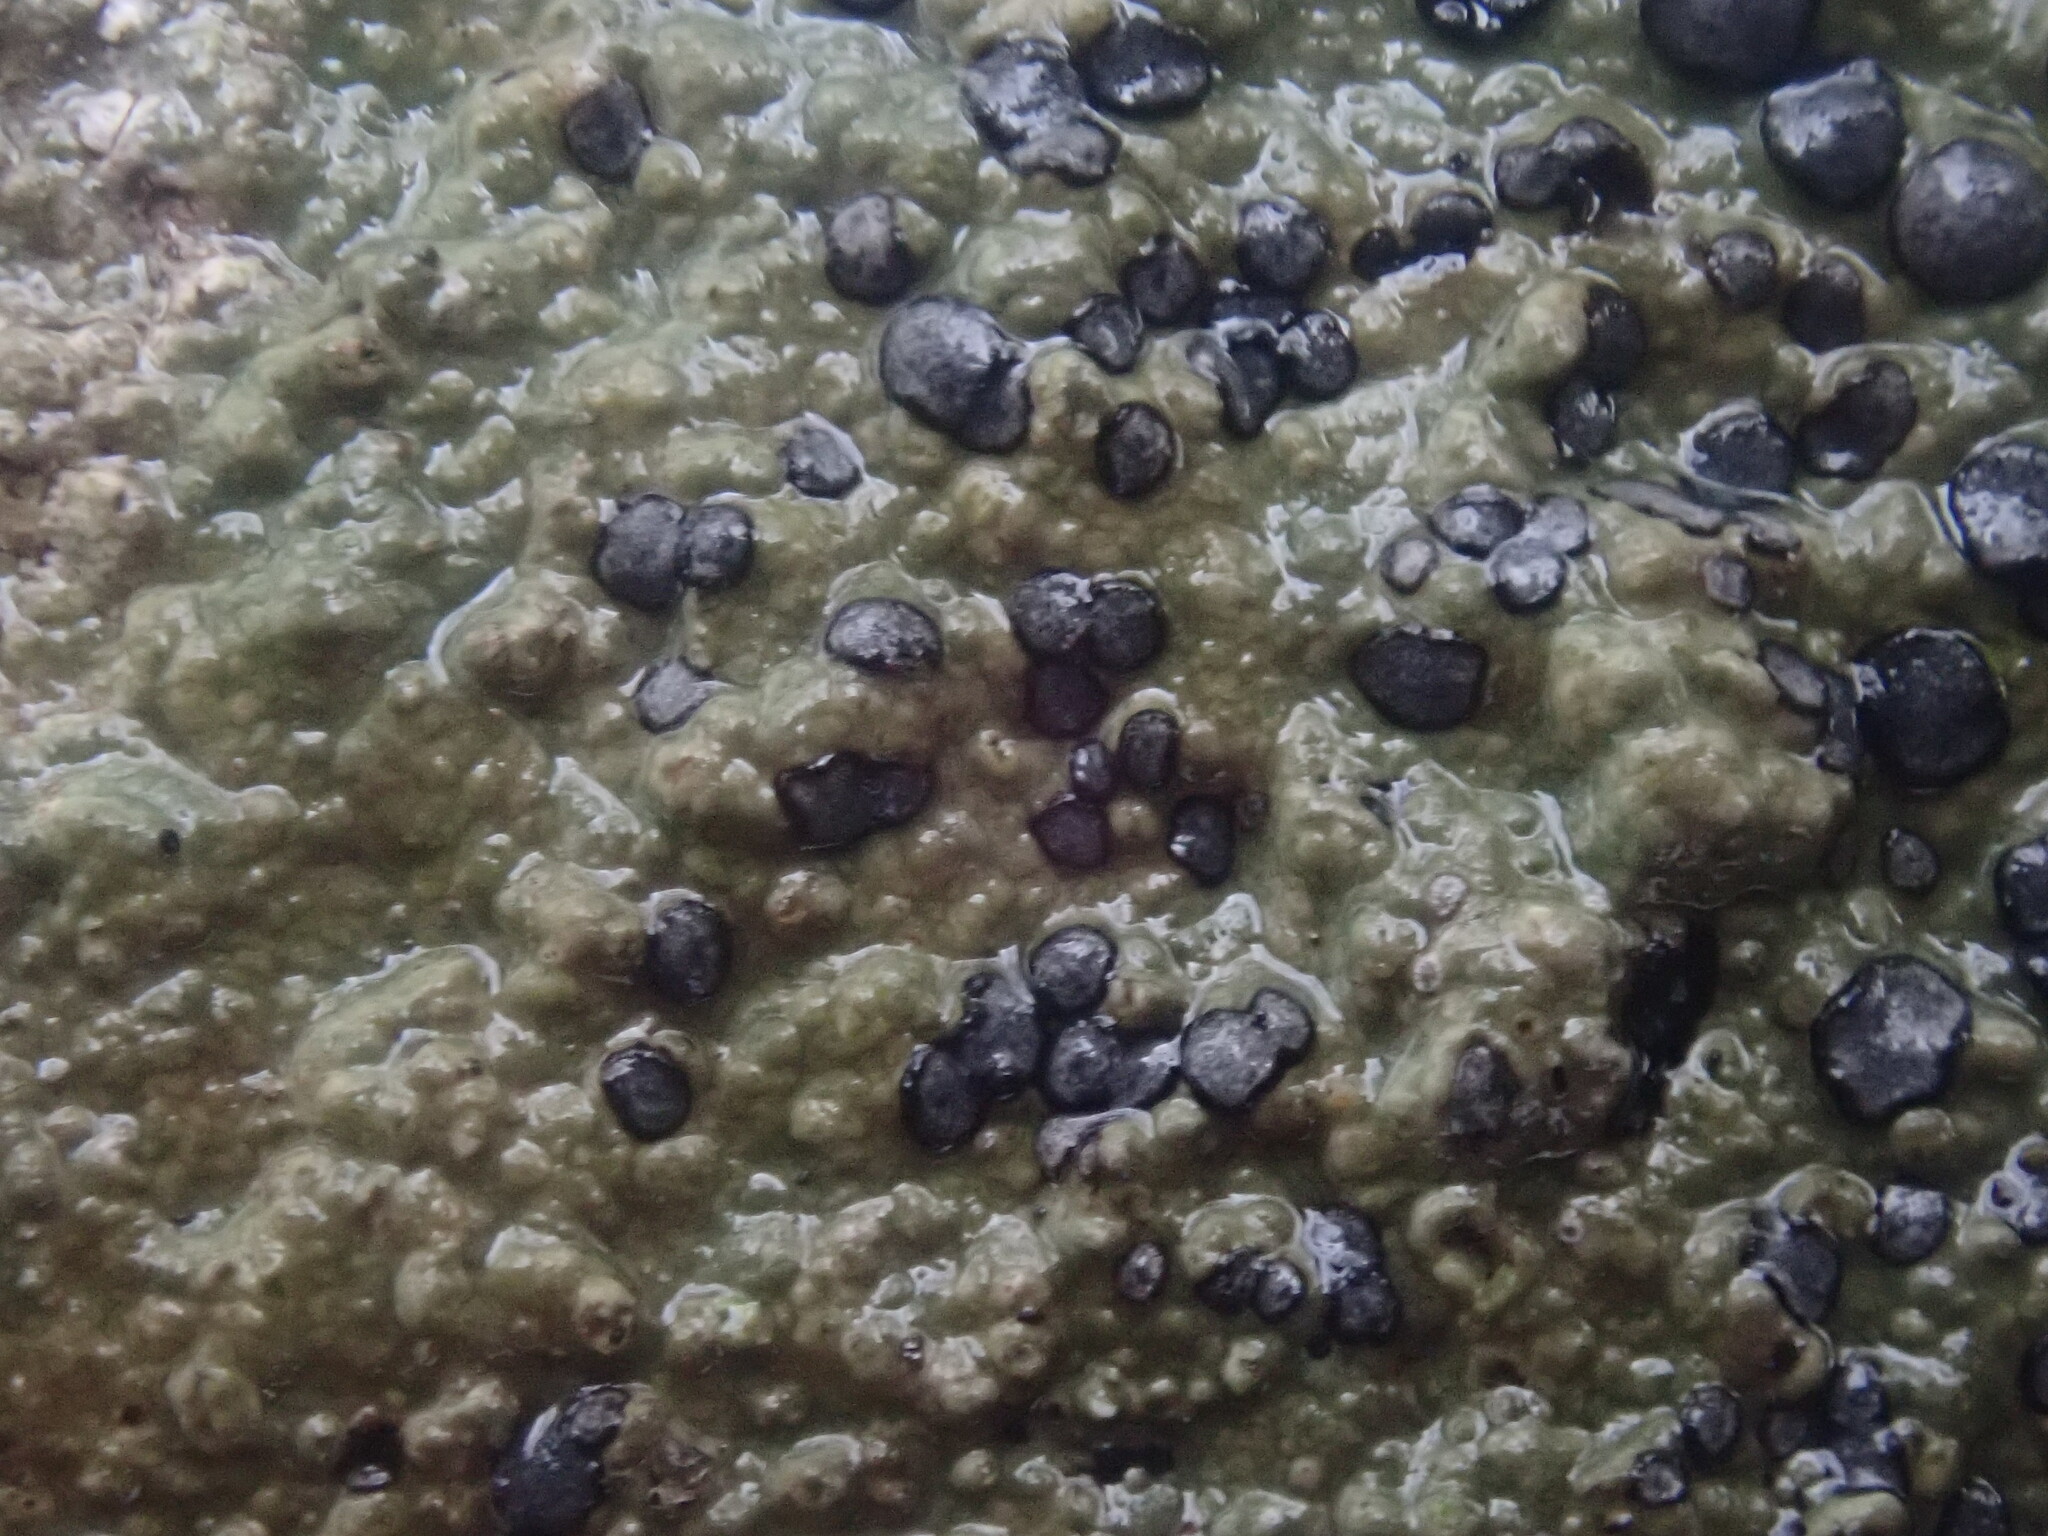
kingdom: Fungi
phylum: Ascomycota
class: Lecanoromycetes
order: Lecideales
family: Lecideaceae
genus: Porpidia
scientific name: Porpidia albocaerulescens
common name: Smokey-eyed boulder lichen
